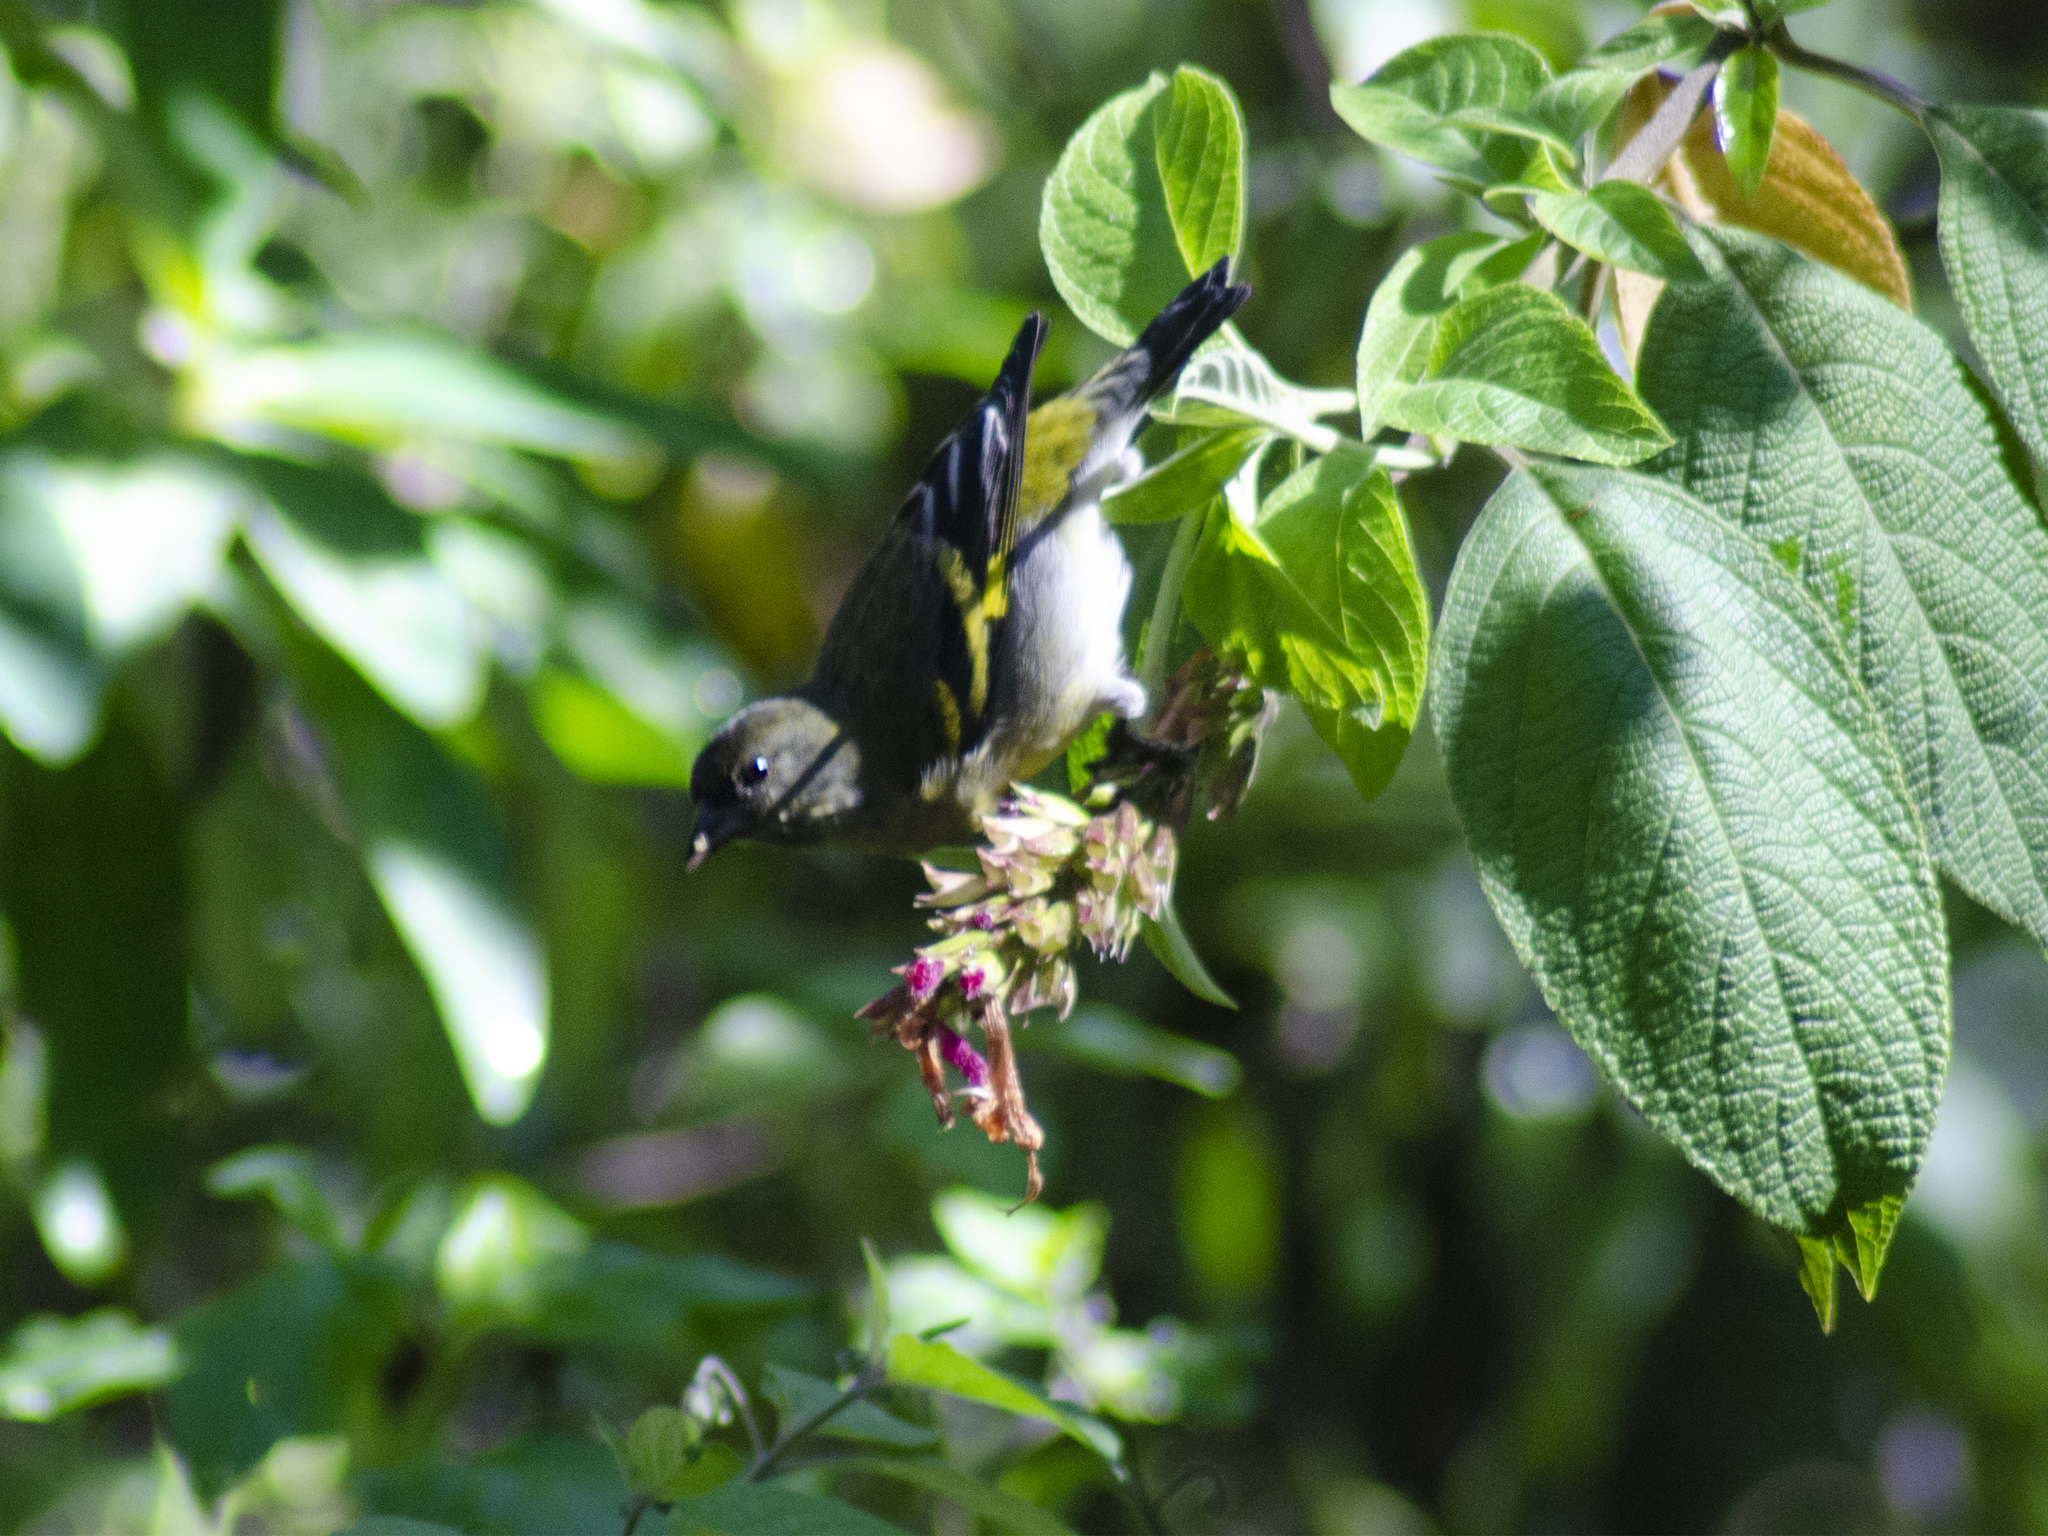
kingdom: Animalia
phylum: Chordata
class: Aves
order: Passeriformes
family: Fringillidae
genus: Spinus
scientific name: Spinus magellanicus
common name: Hooded siskin
